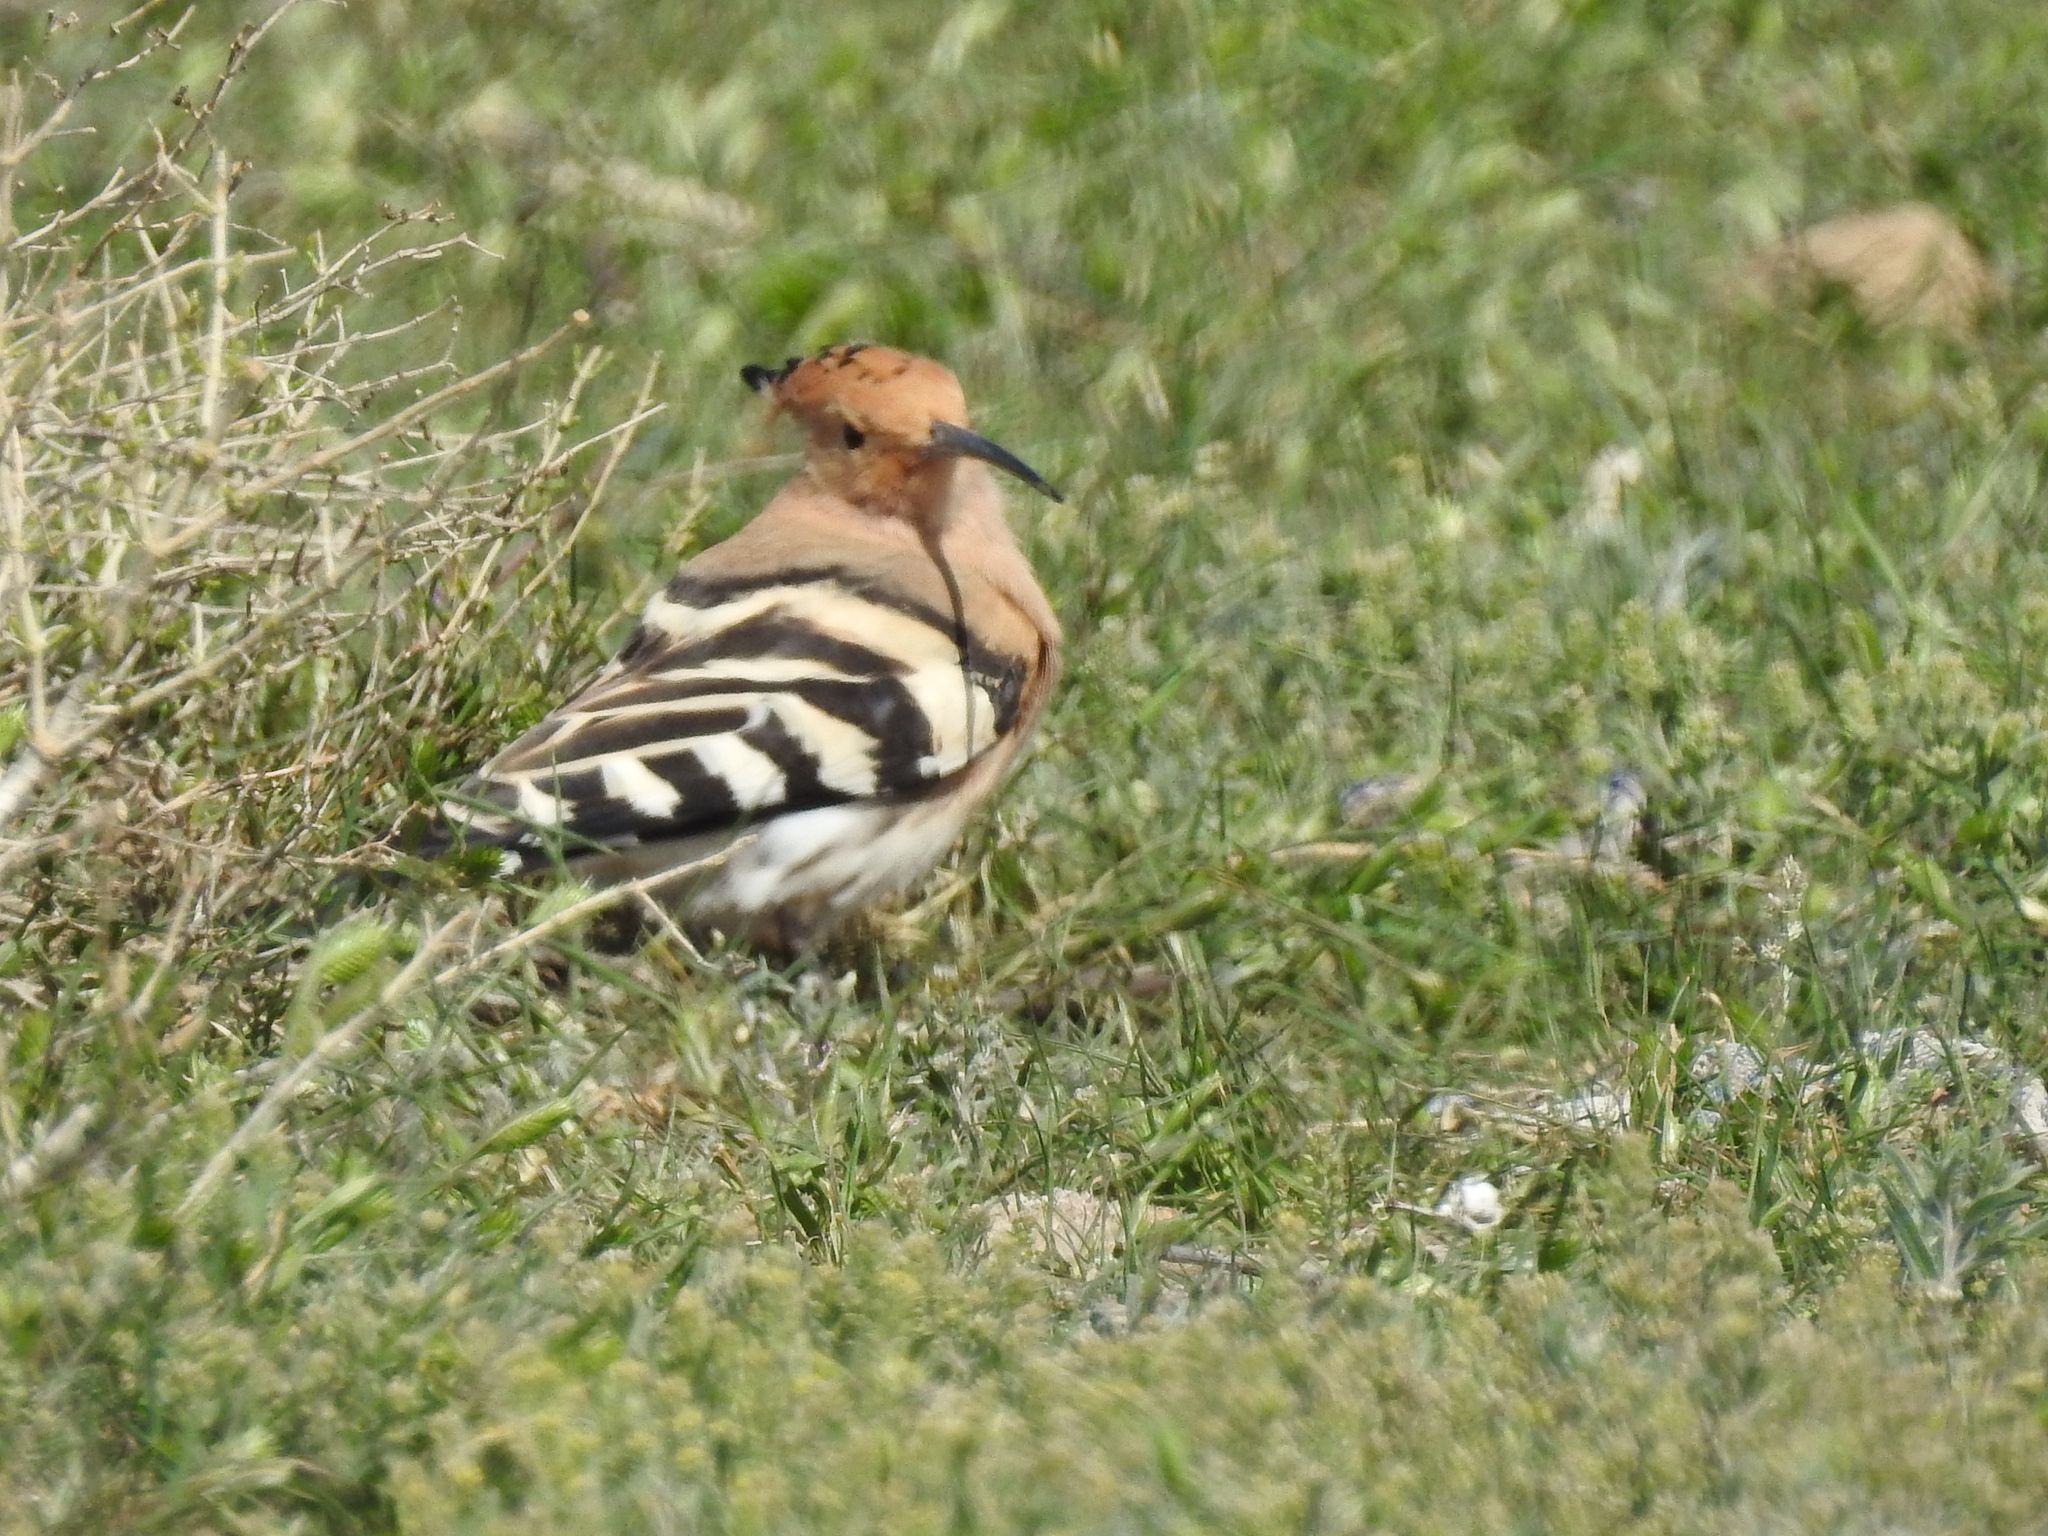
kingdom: Animalia
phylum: Chordata
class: Aves
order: Bucerotiformes
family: Upupidae
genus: Upupa
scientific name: Upupa epops
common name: Eurasian hoopoe
